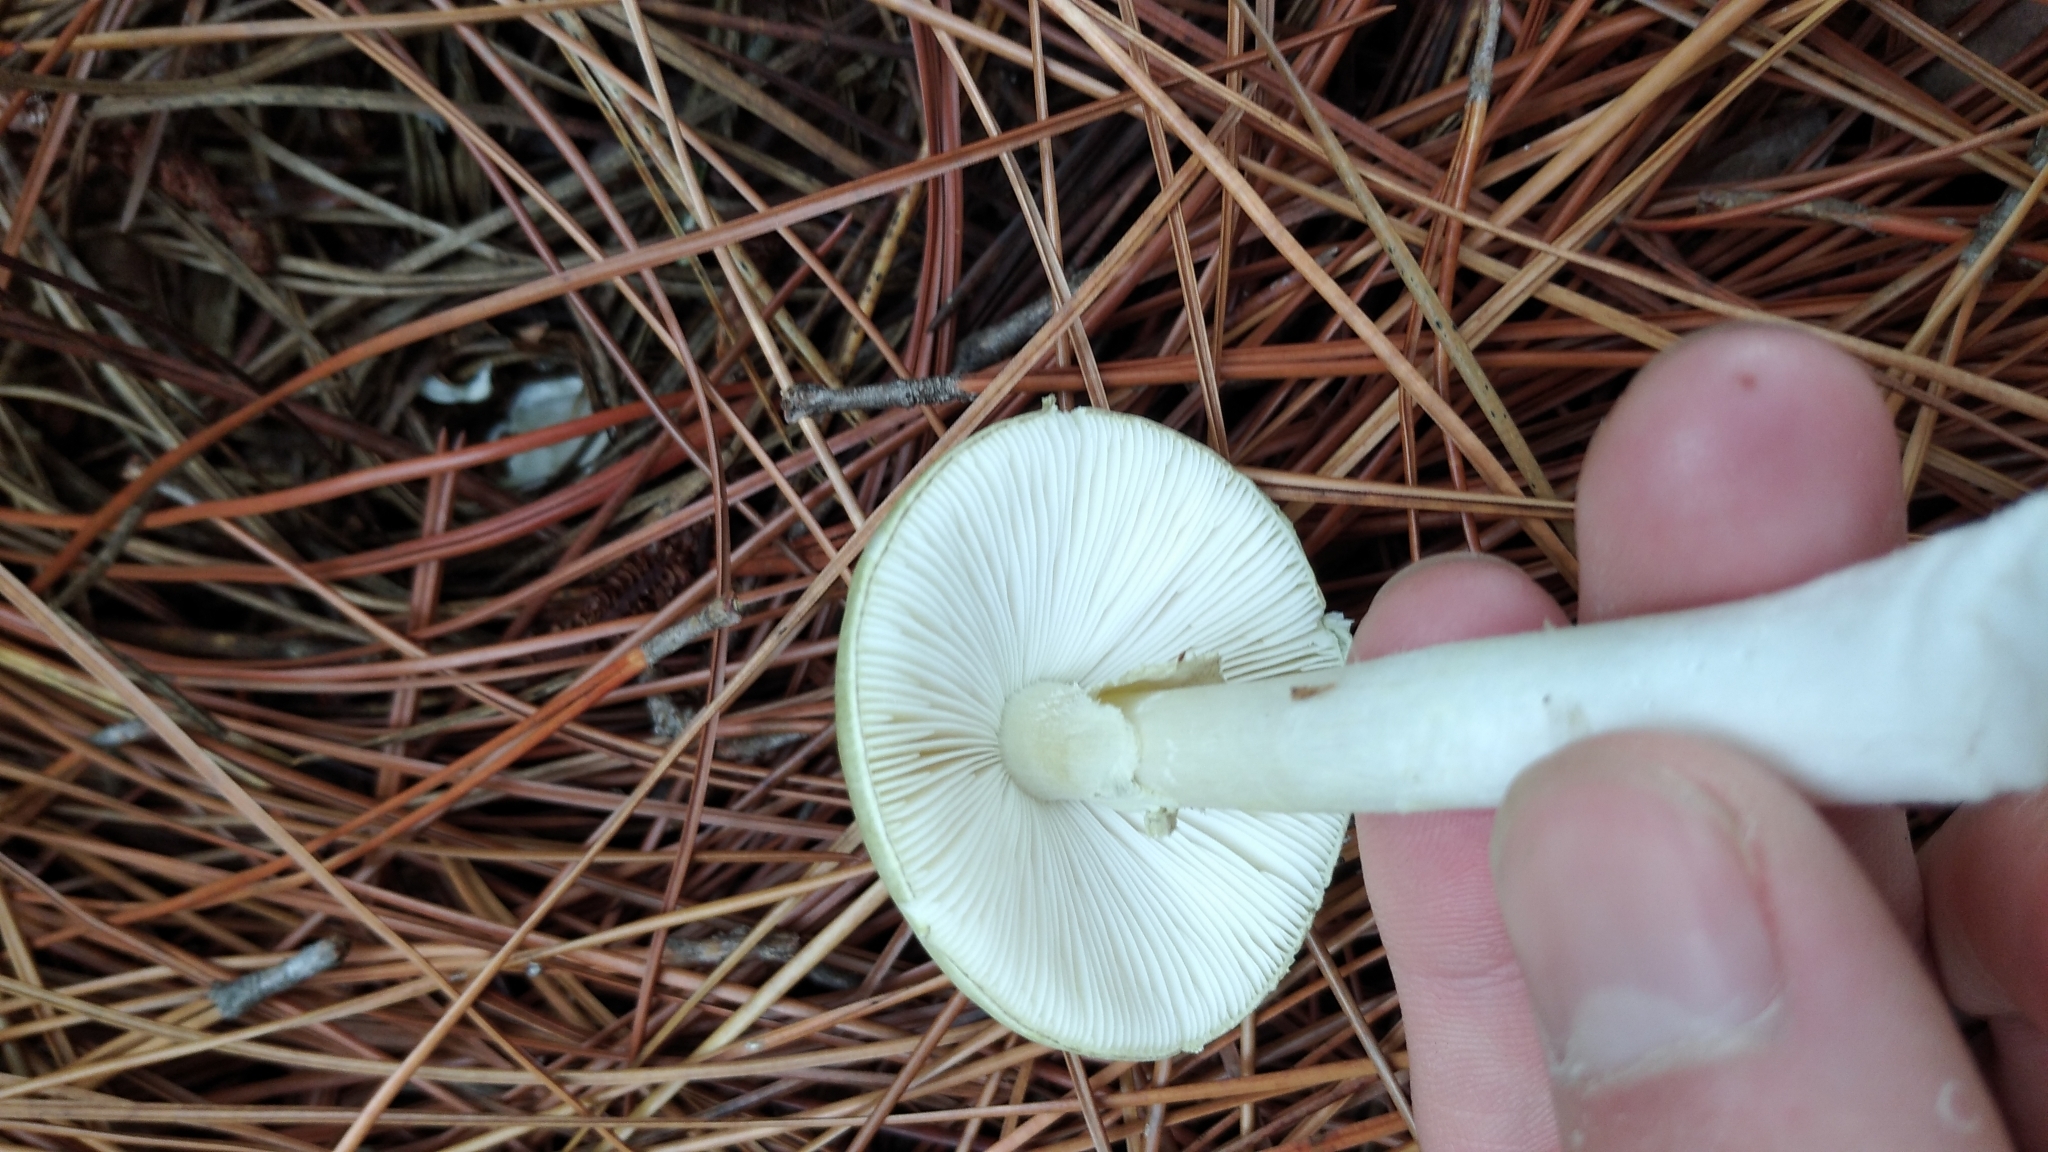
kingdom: Fungi
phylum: Basidiomycota
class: Agaricomycetes
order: Agaricales
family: Amanitaceae
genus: Amanita
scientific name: Amanita phalloides
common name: Death cap
